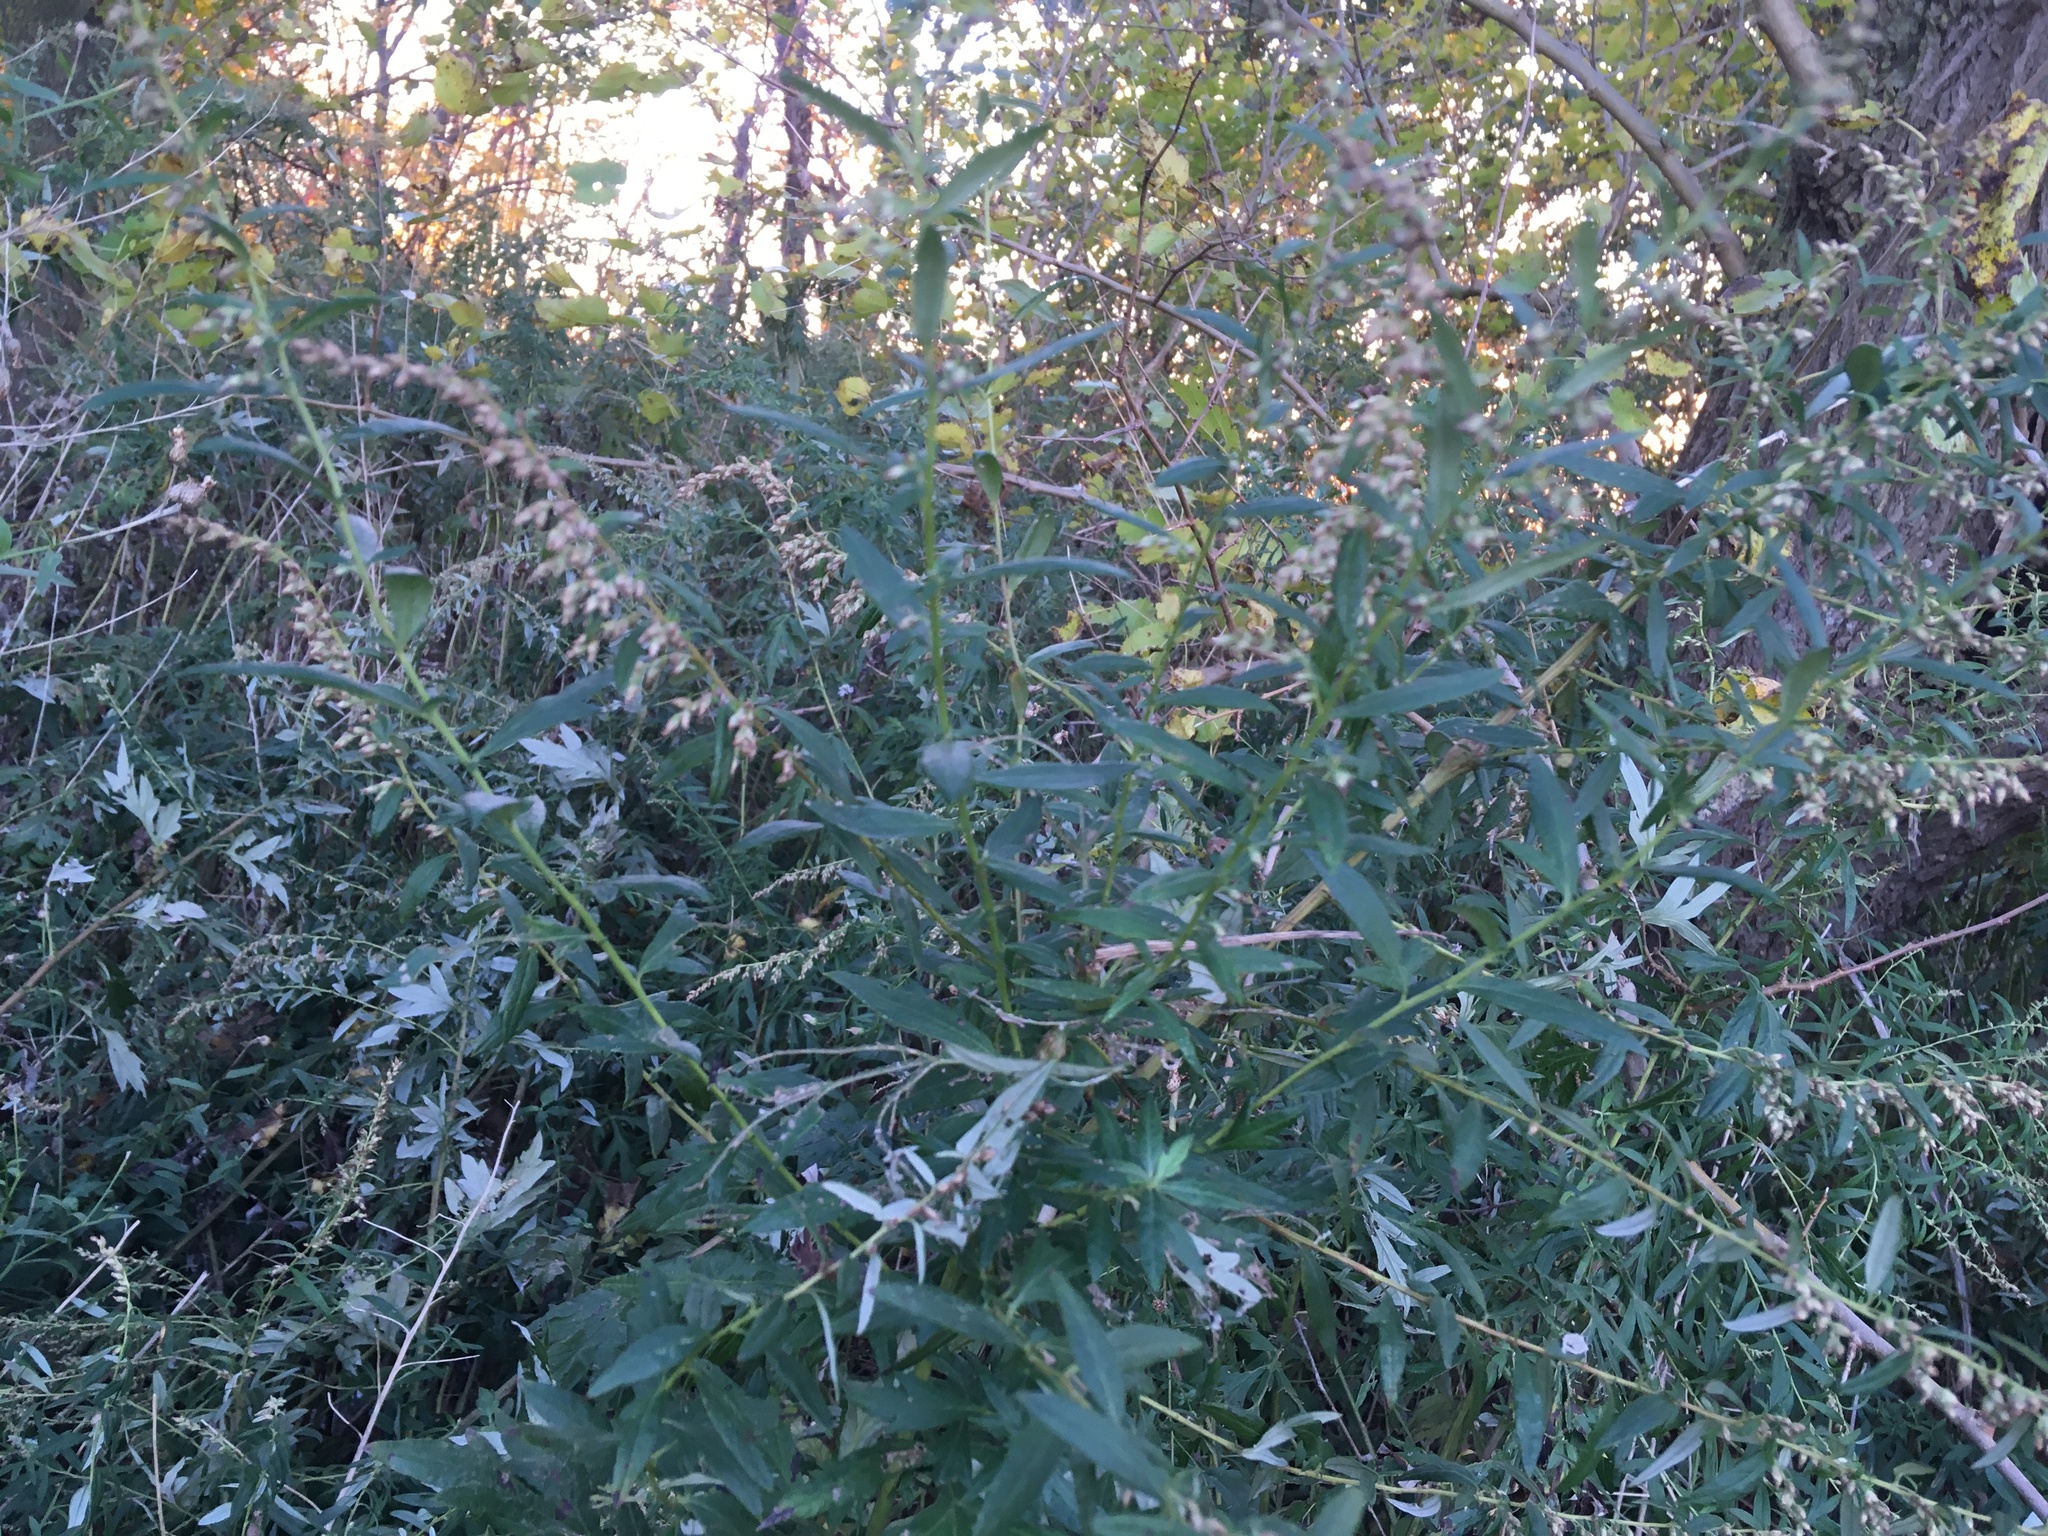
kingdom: Plantae
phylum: Tracheophyta
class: Magnoliopsida
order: Asterales
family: Asteraceae
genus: Artemisia
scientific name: Artemisia vulgaris
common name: Mugwort
